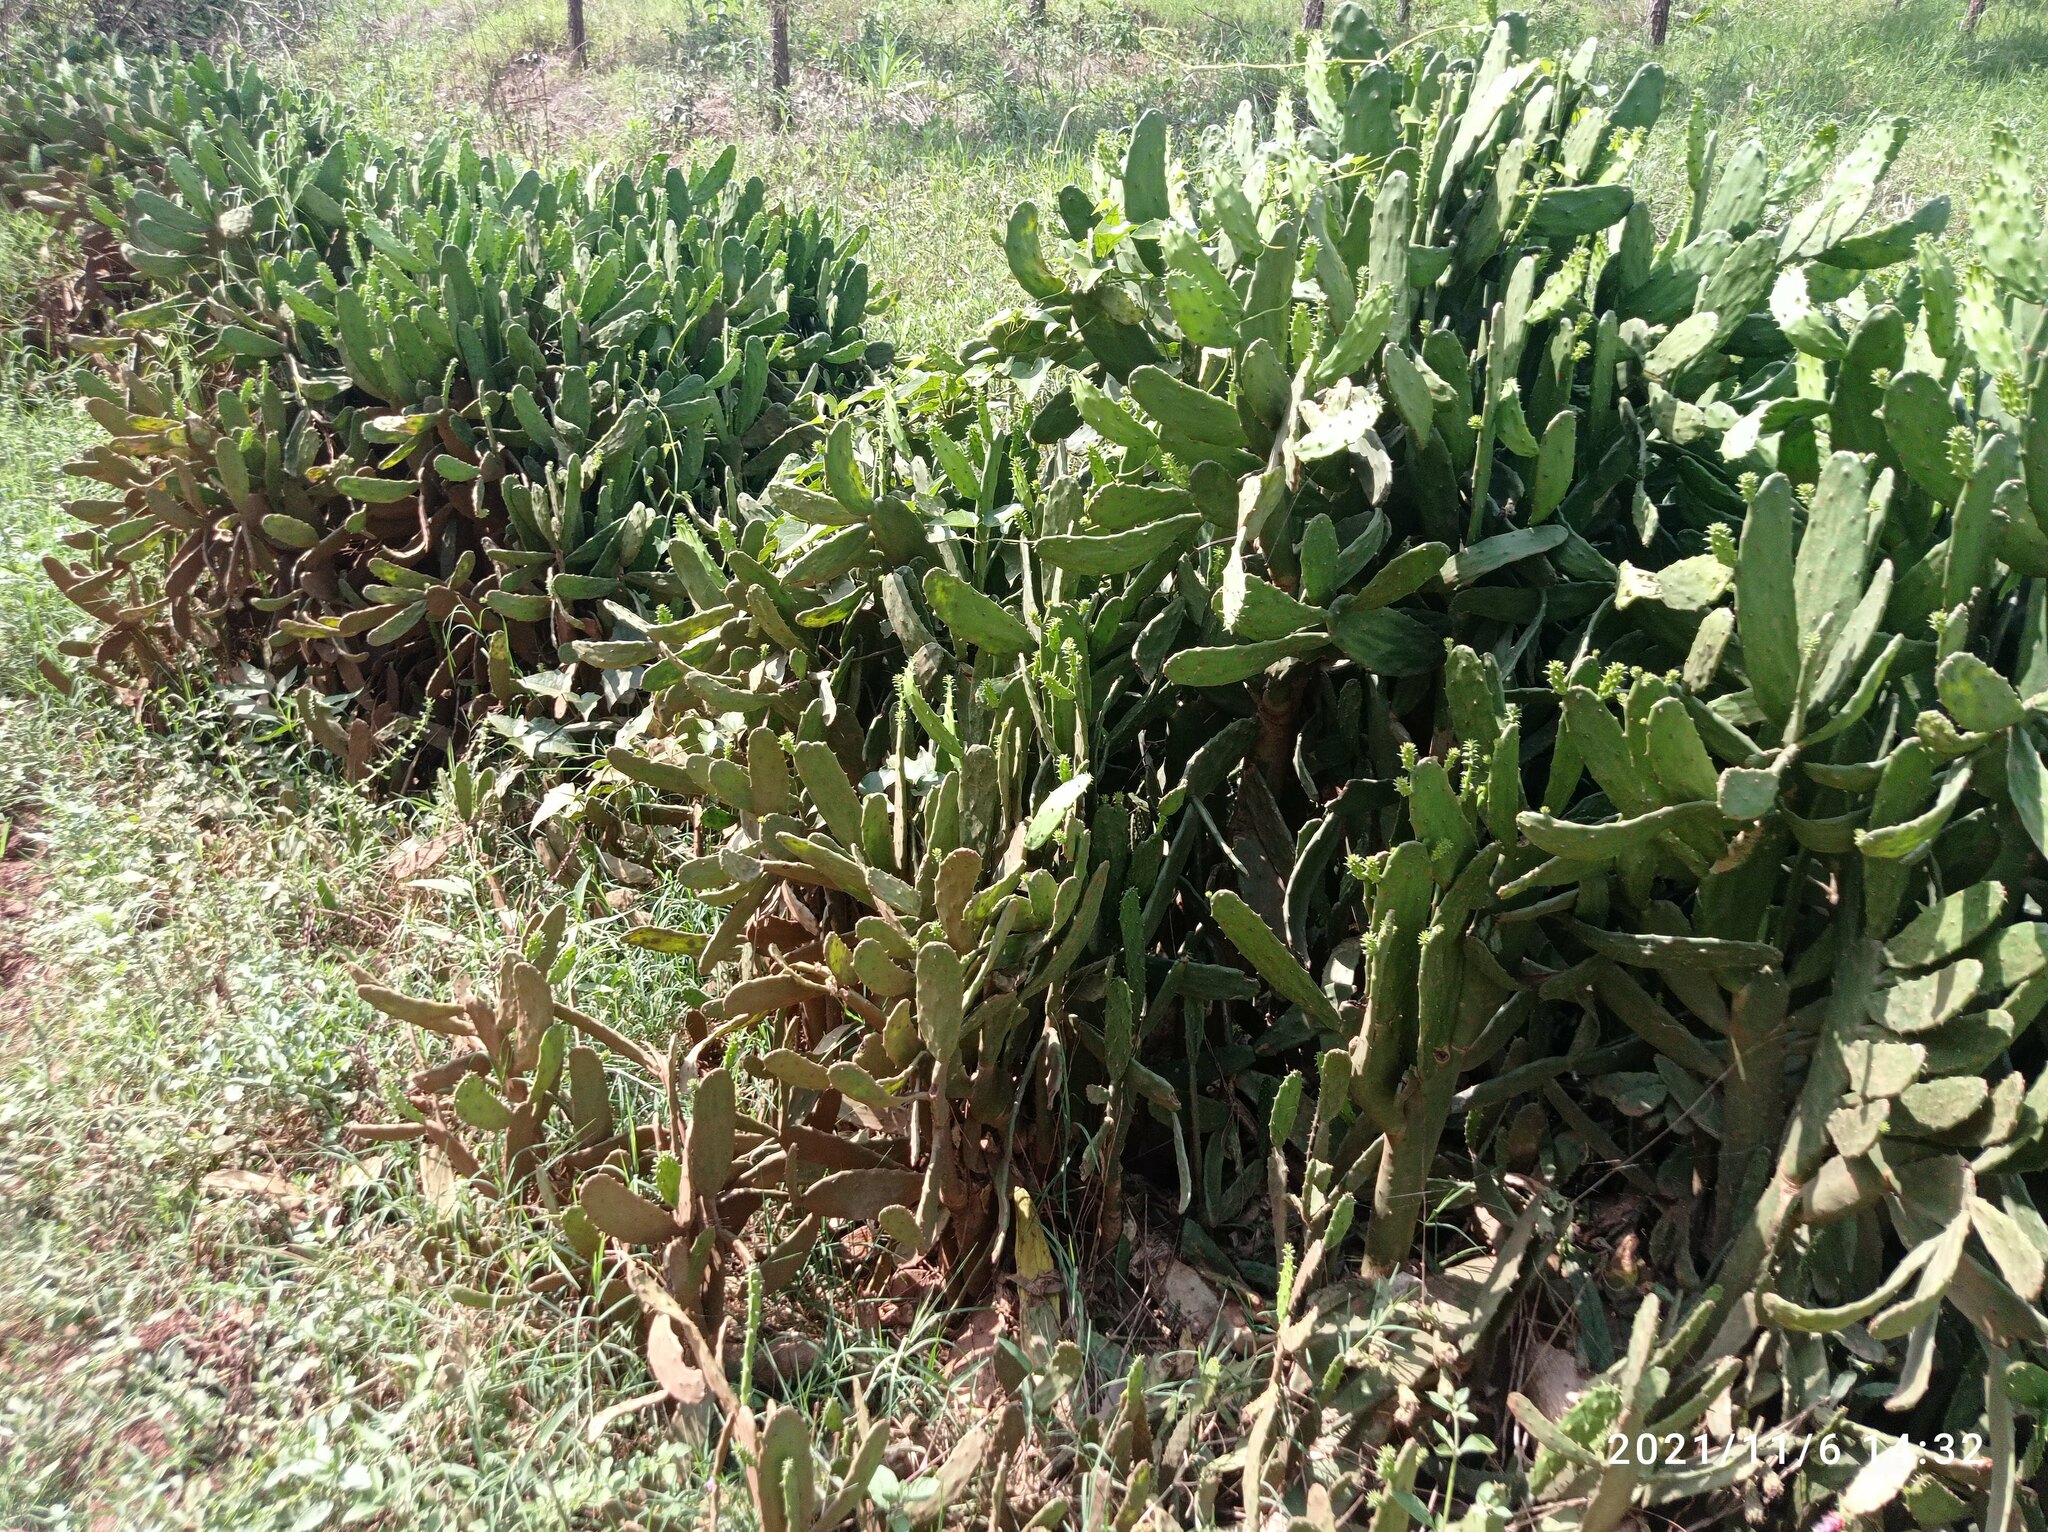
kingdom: Plantae
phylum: Tracheophyta
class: Magnoliopsida
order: Caryophyllales
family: Cactaceae
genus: Opuntia
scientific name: Opuntia cochenillifera
